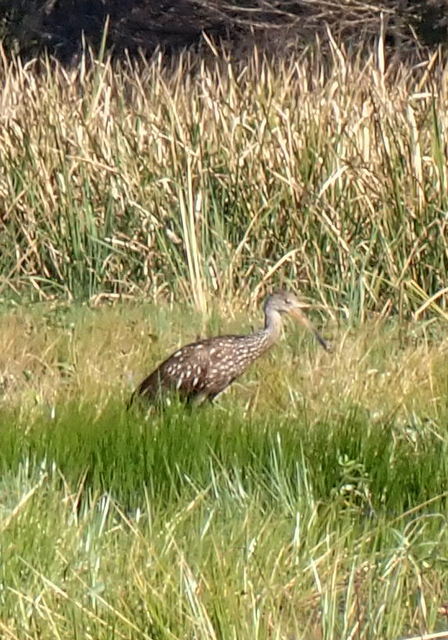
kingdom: Animalia
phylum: Chordata
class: Aves
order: Gruiformes
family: Aramidae
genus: Aramus
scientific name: Aramus guarauna
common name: Limpkin
